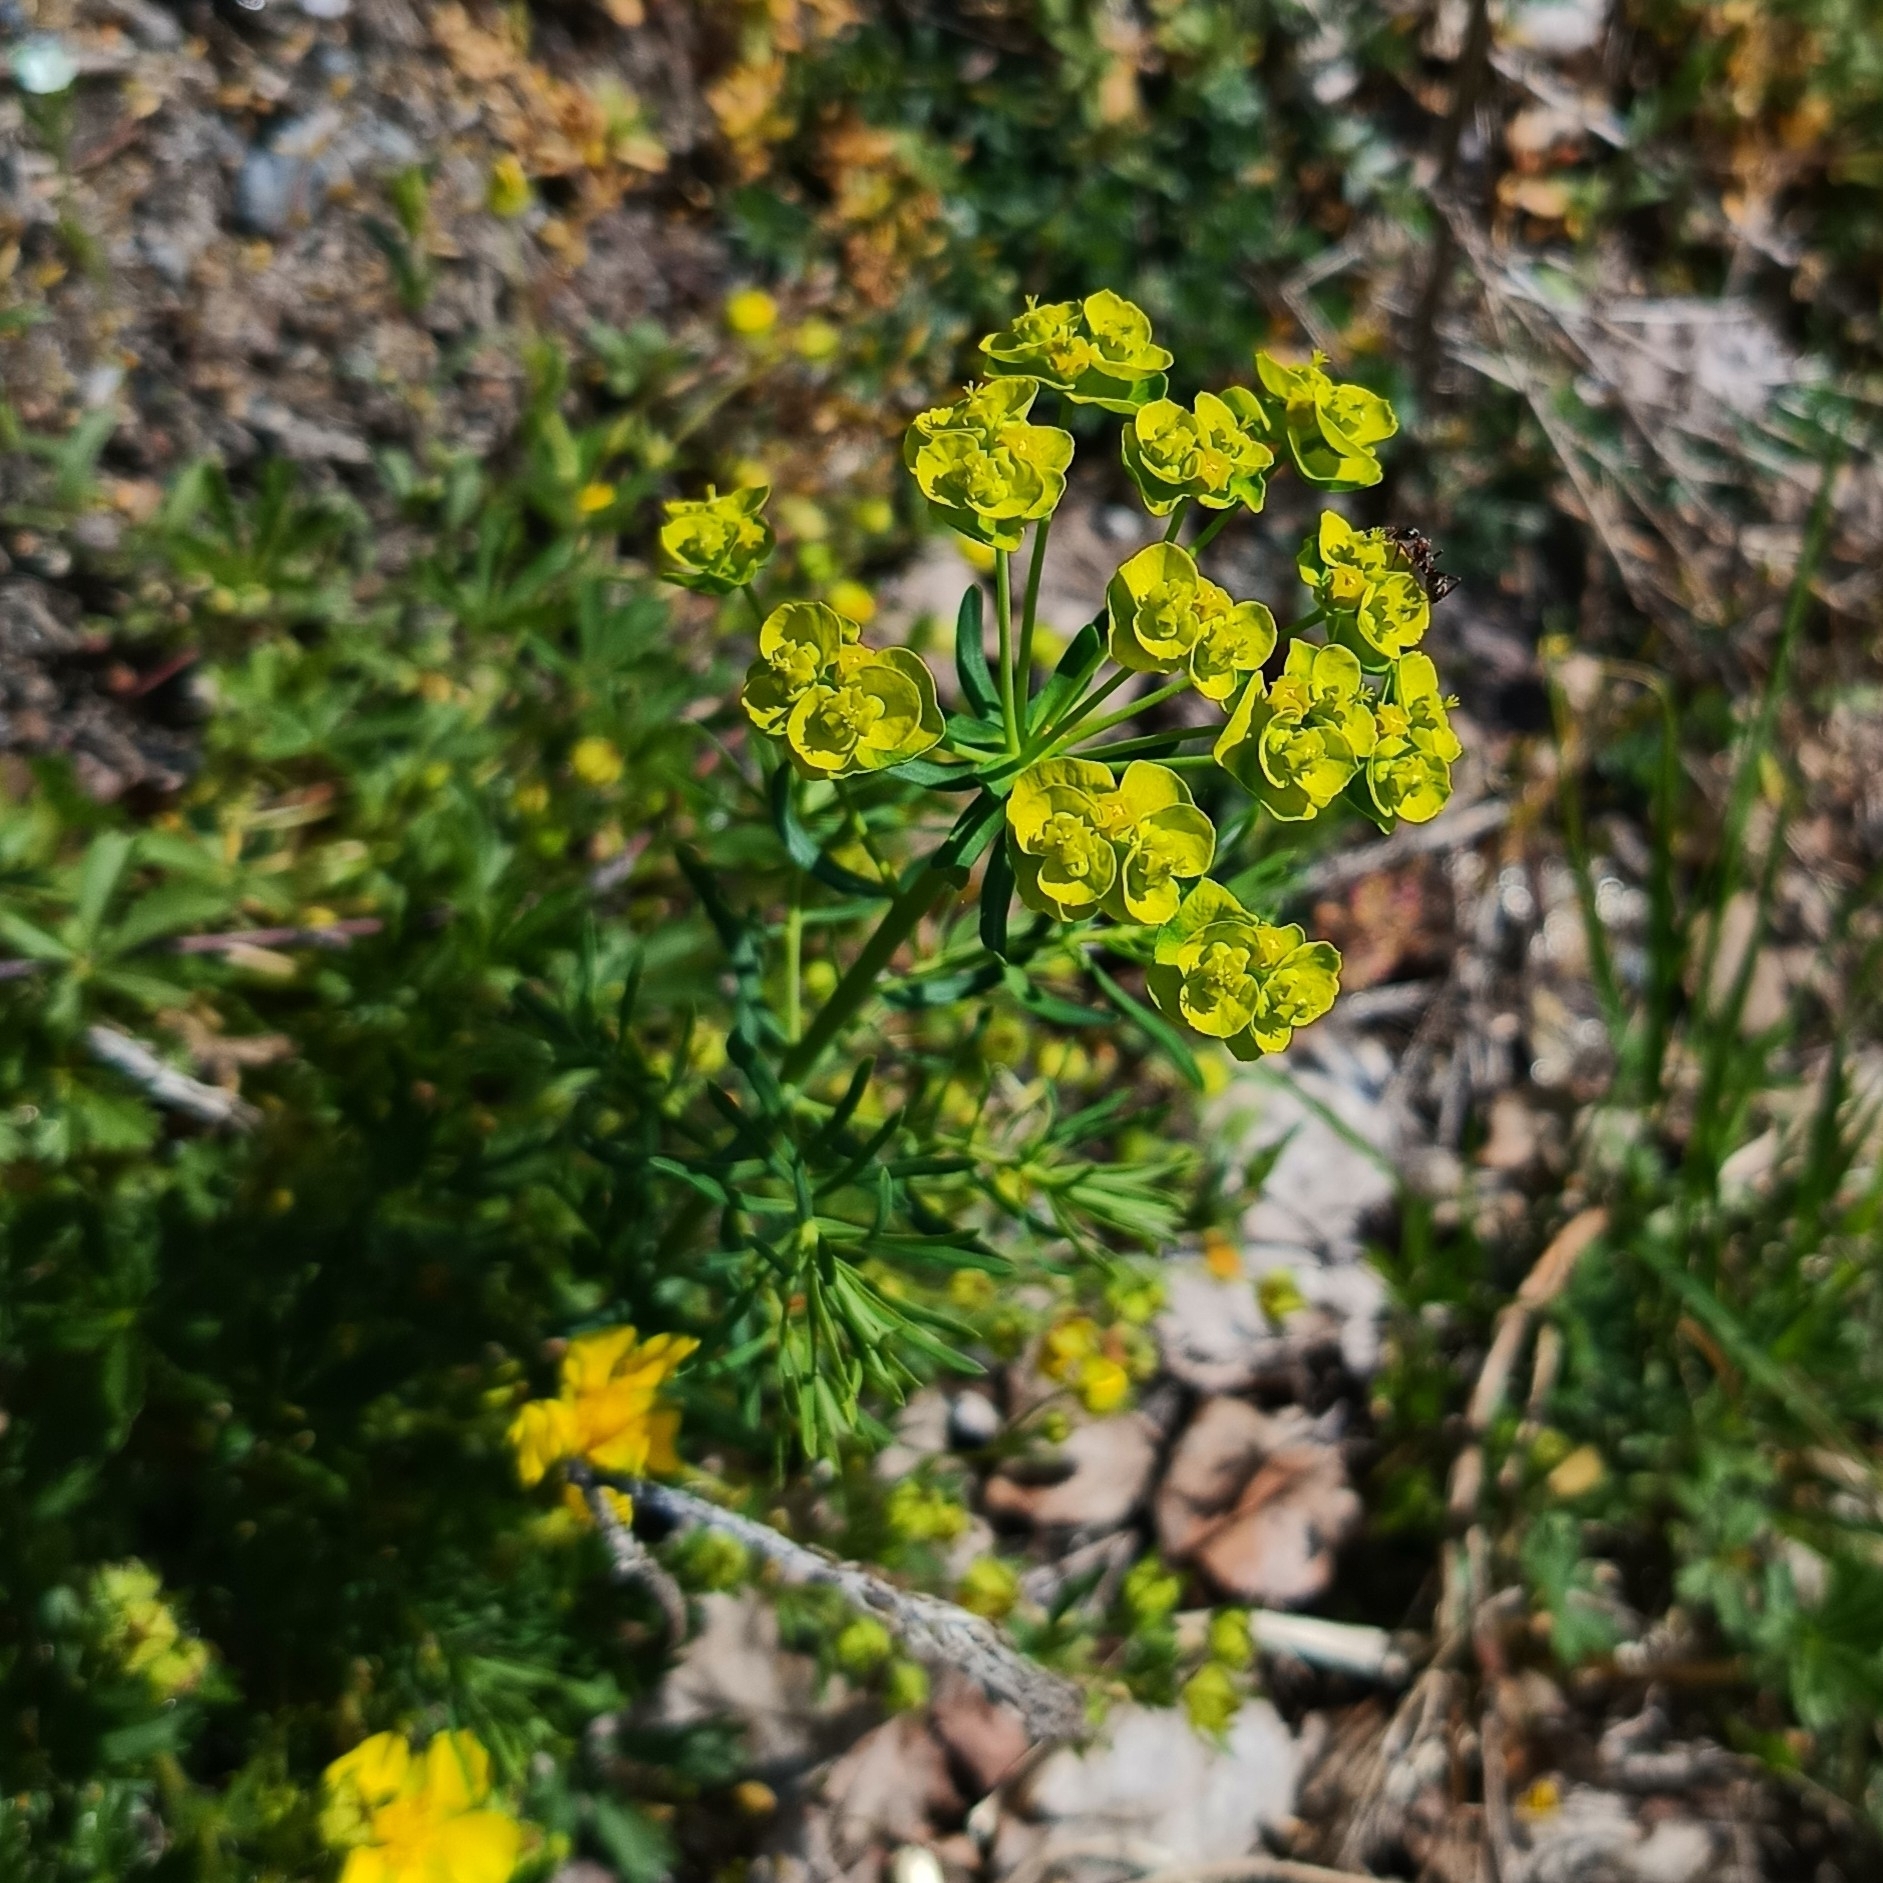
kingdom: Plantae
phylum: Tracheophyta
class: Magnoliopsida
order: Malpighiales
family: Euphorbiaceae
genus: Euphorbia
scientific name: Euphorbia cyparissias
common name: Cypress spurge
